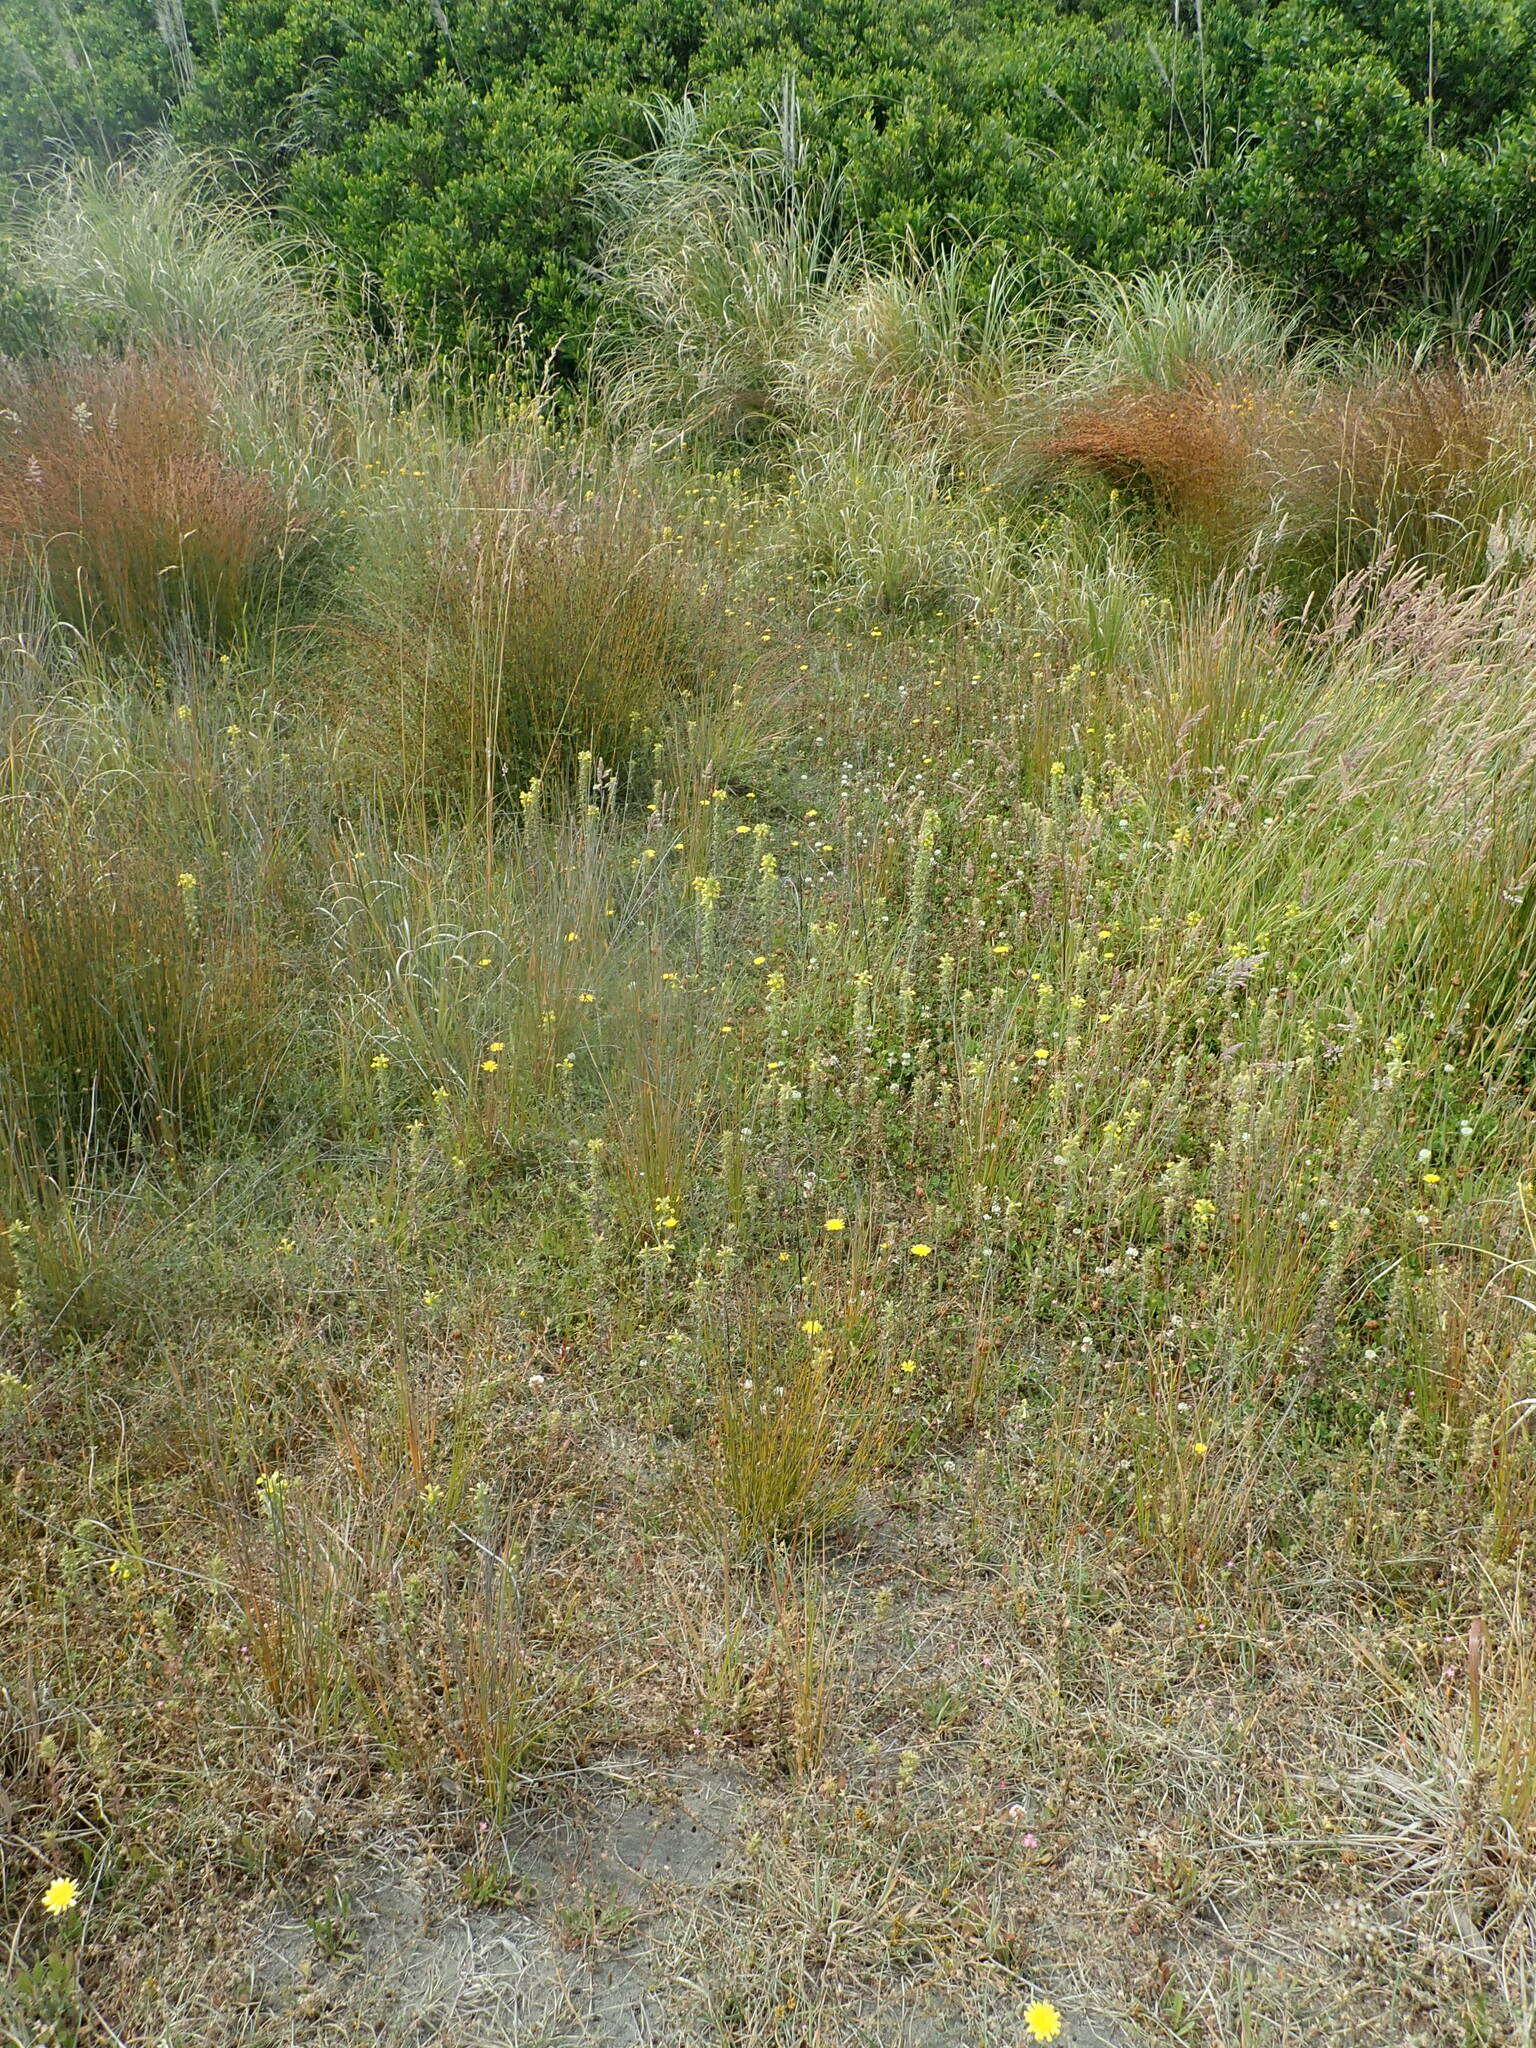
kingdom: Plantae
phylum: Tracheophyta
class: Magnoliopsida
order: Lamiales
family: Orobanchaceae
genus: Bellardia
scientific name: Bellardia viscosa
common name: Sticky parentucellia
